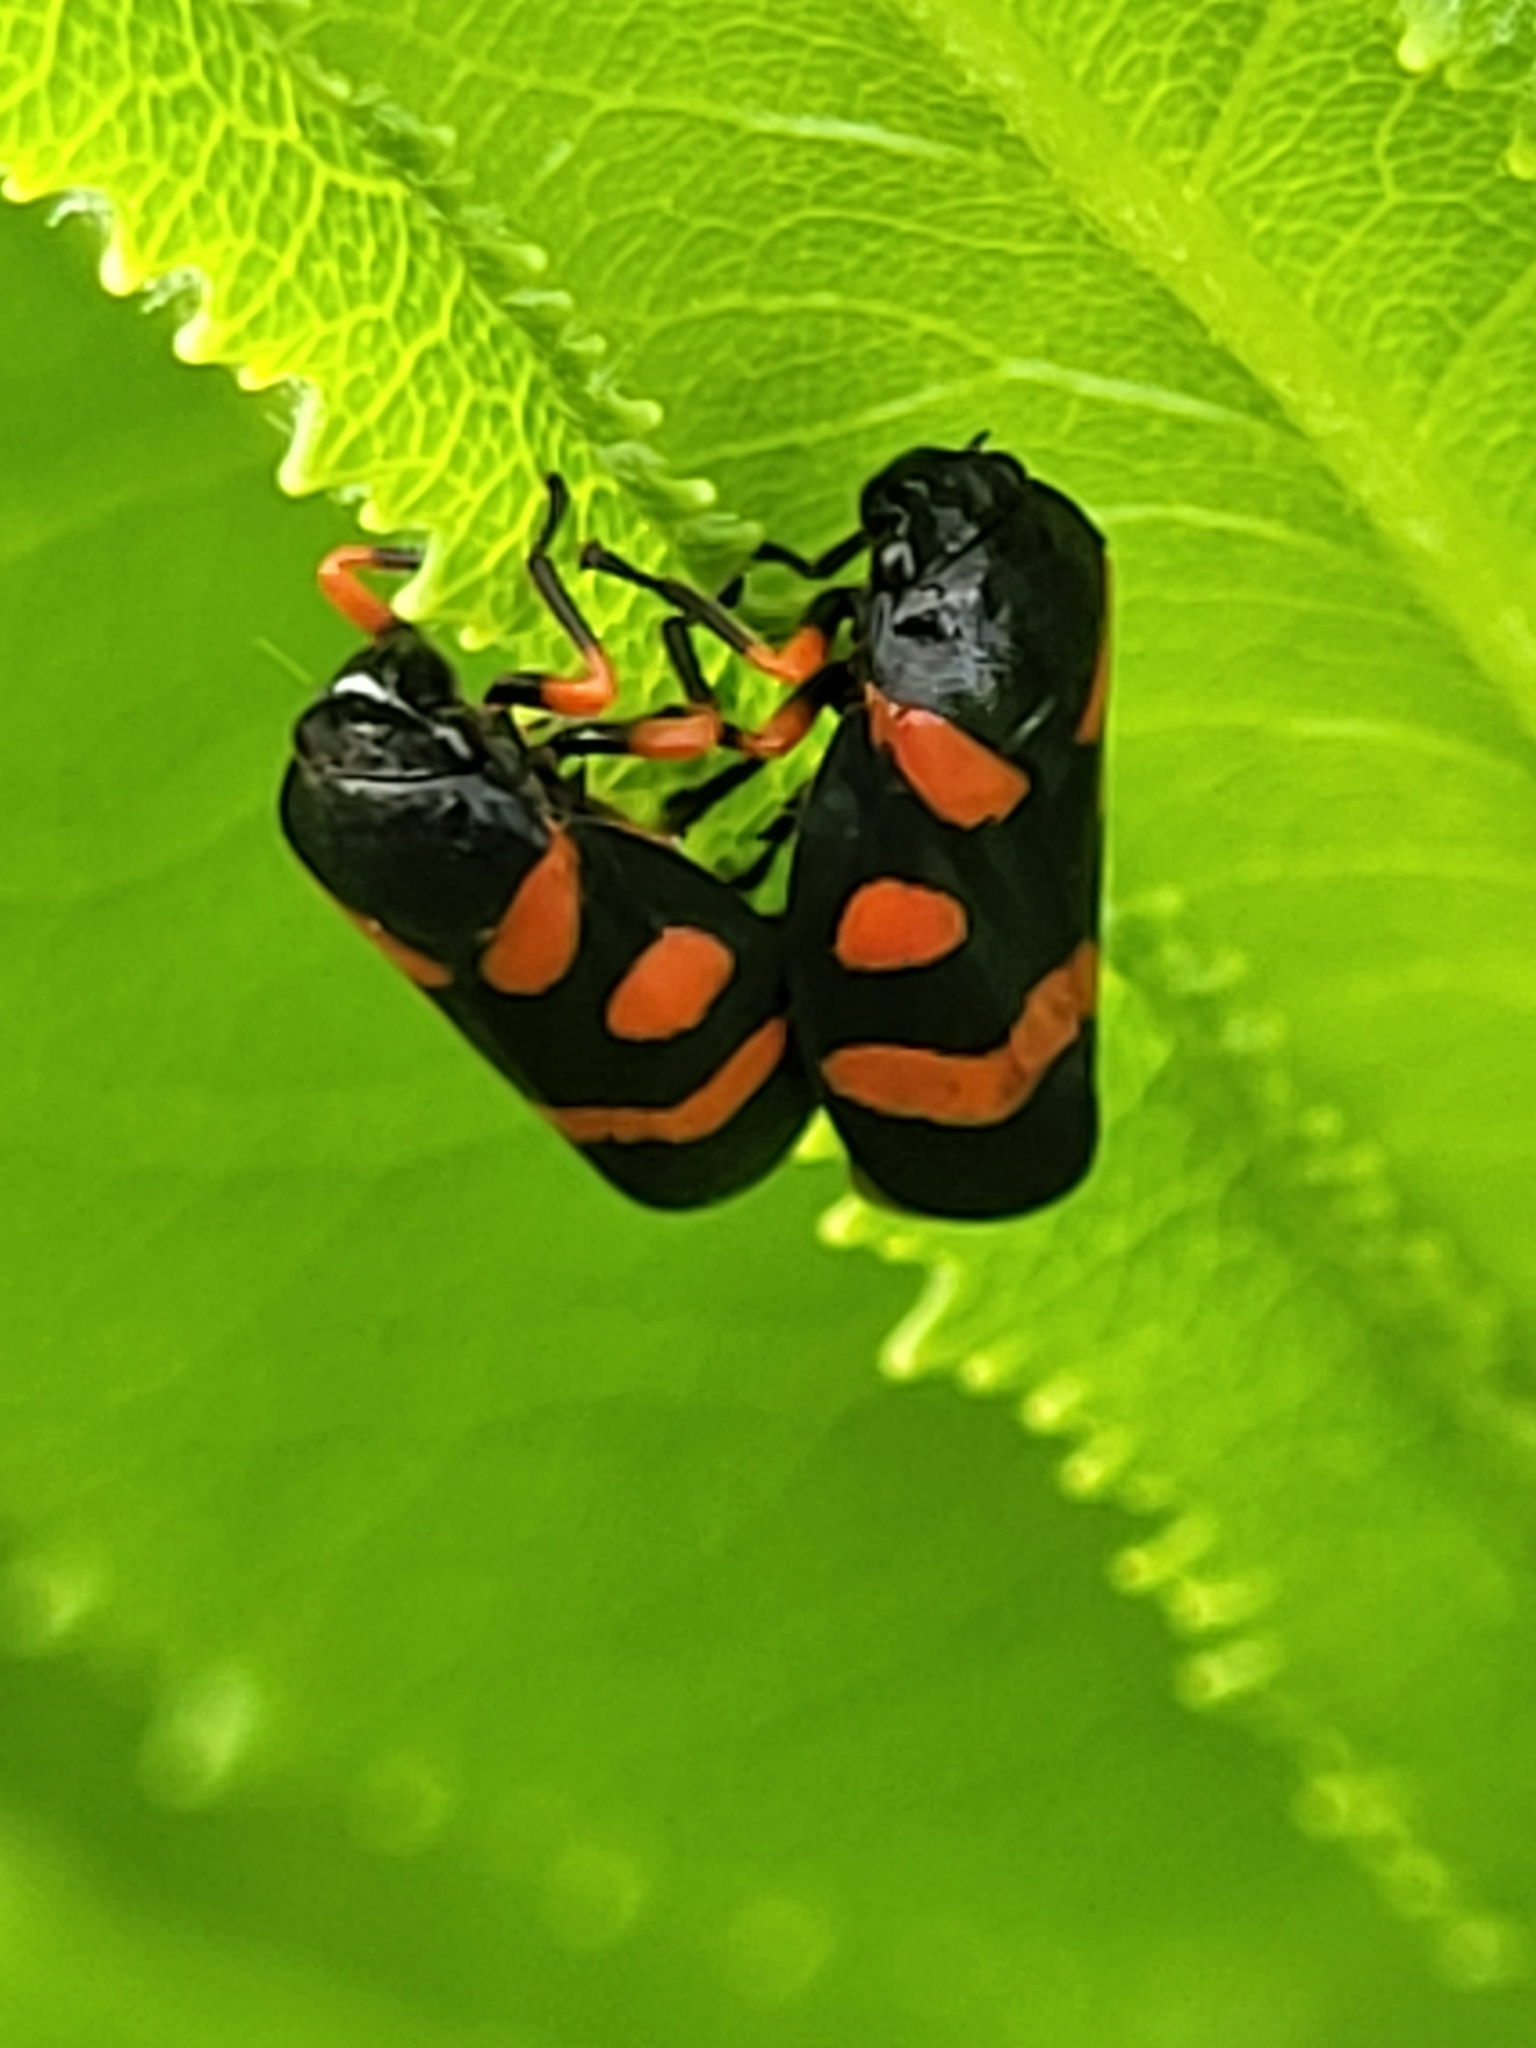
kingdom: Animalia
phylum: Arthropoda
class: Insecta
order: Hemiptera
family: Cercopidae
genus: Cercopis
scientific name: Cercopis intermedia
